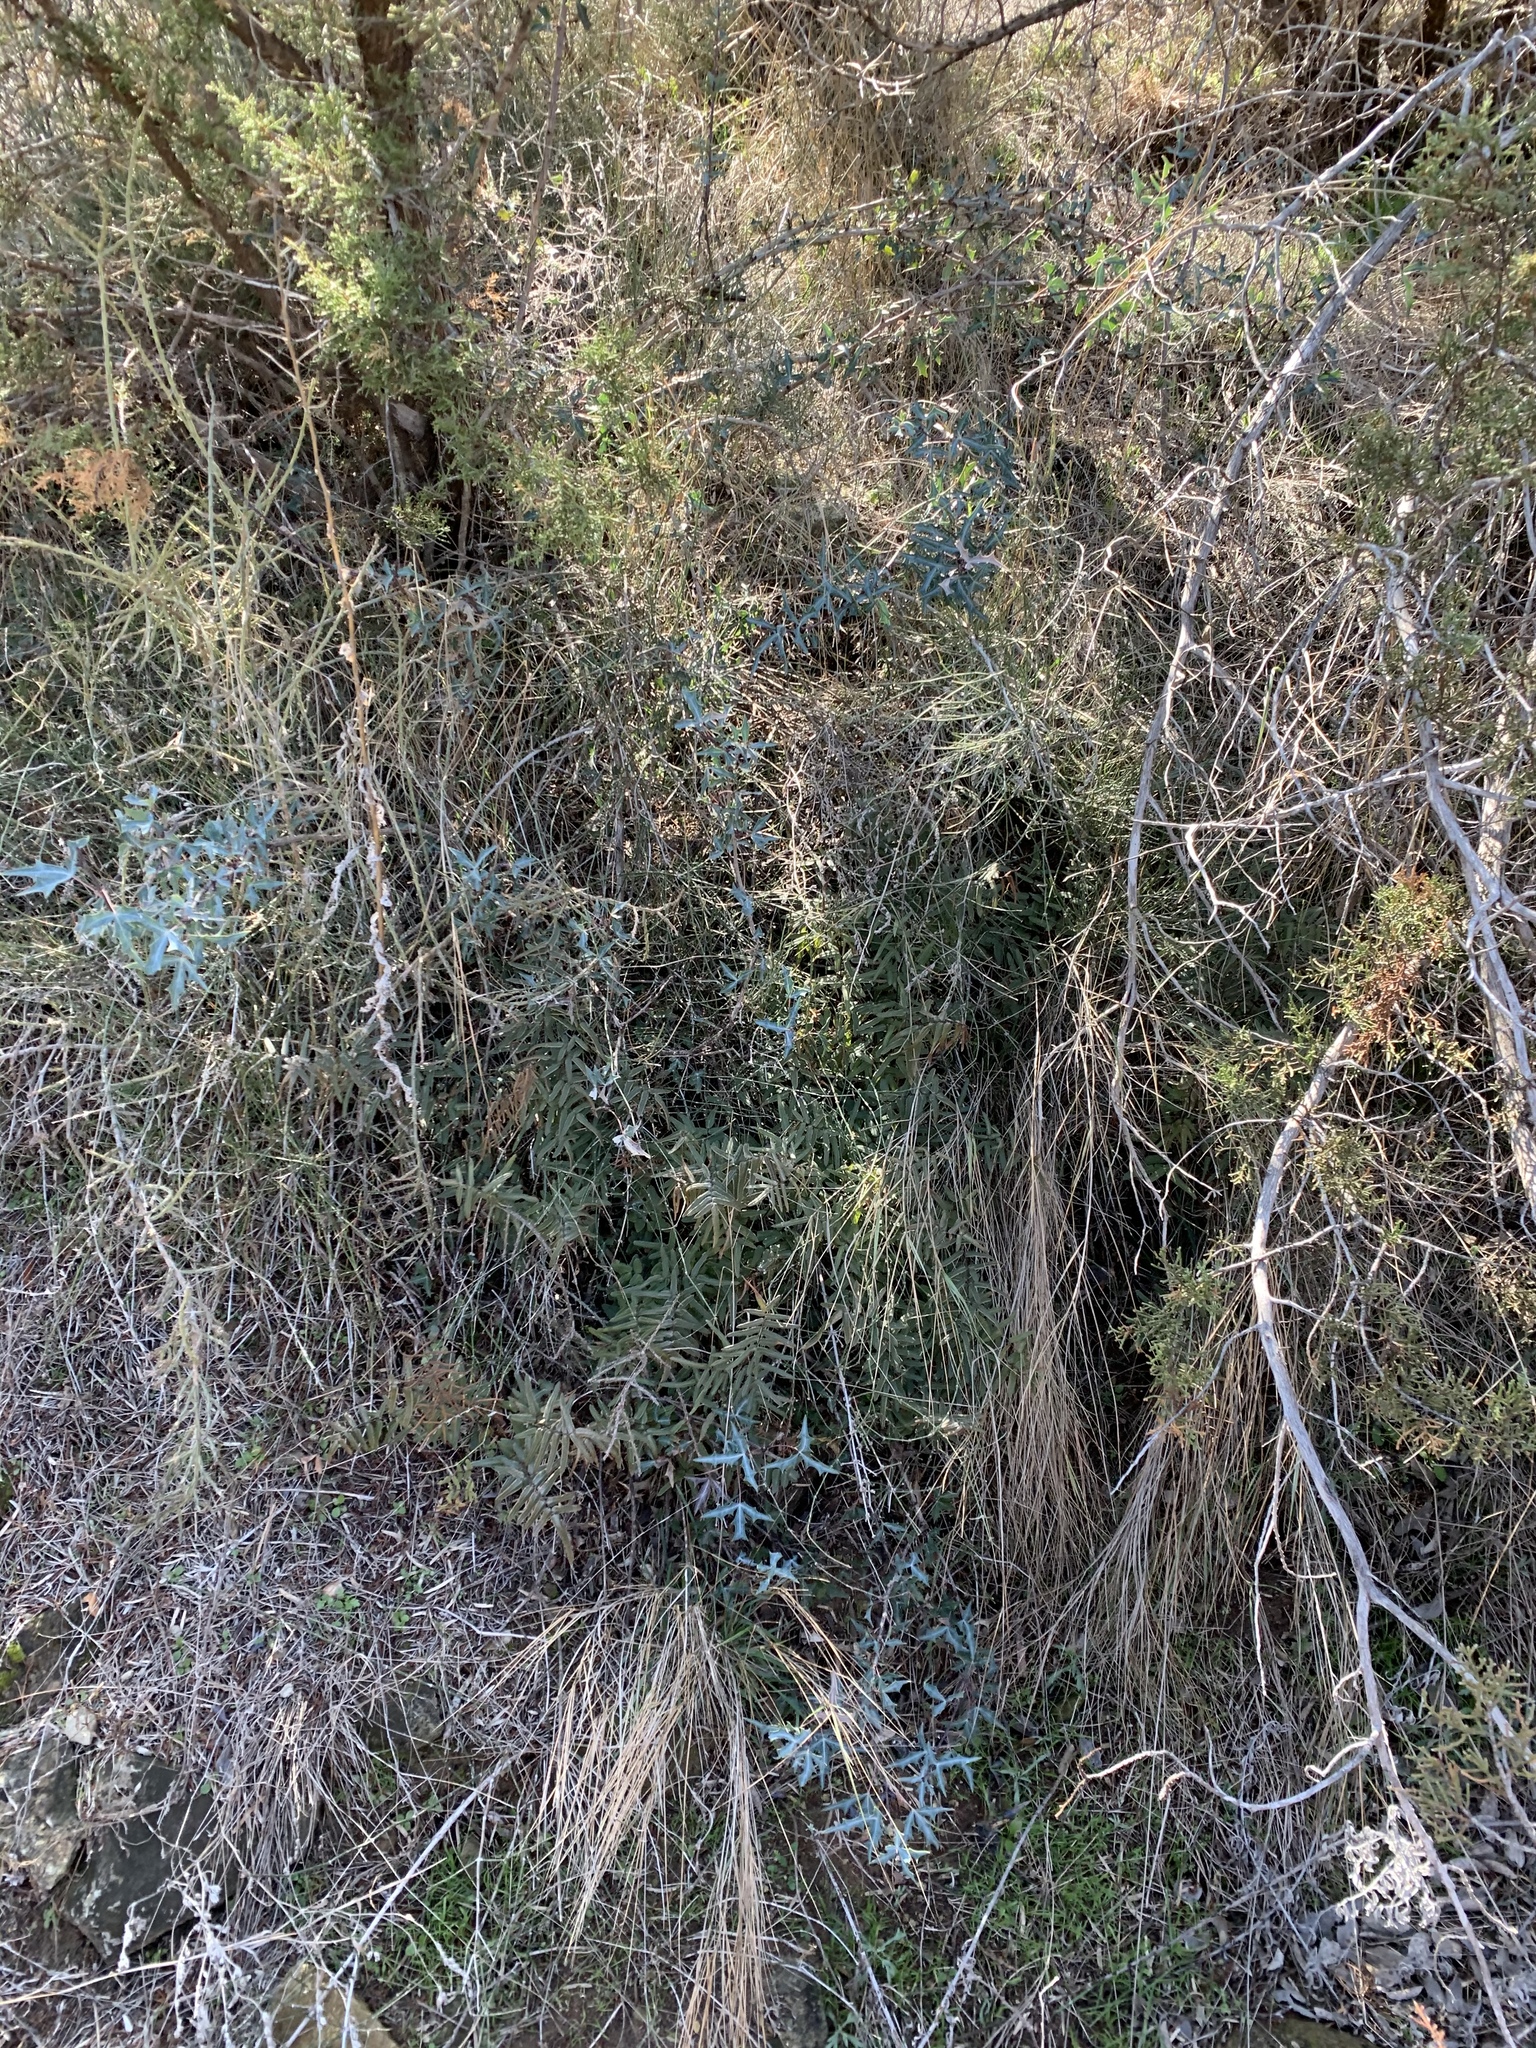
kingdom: Plantae
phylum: Tracheophyta
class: Polypodiopsida
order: Polypodiales
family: Pteridaceae
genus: Pellaea
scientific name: Pellaea atropurpurea
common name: Hairy cliffbrake
